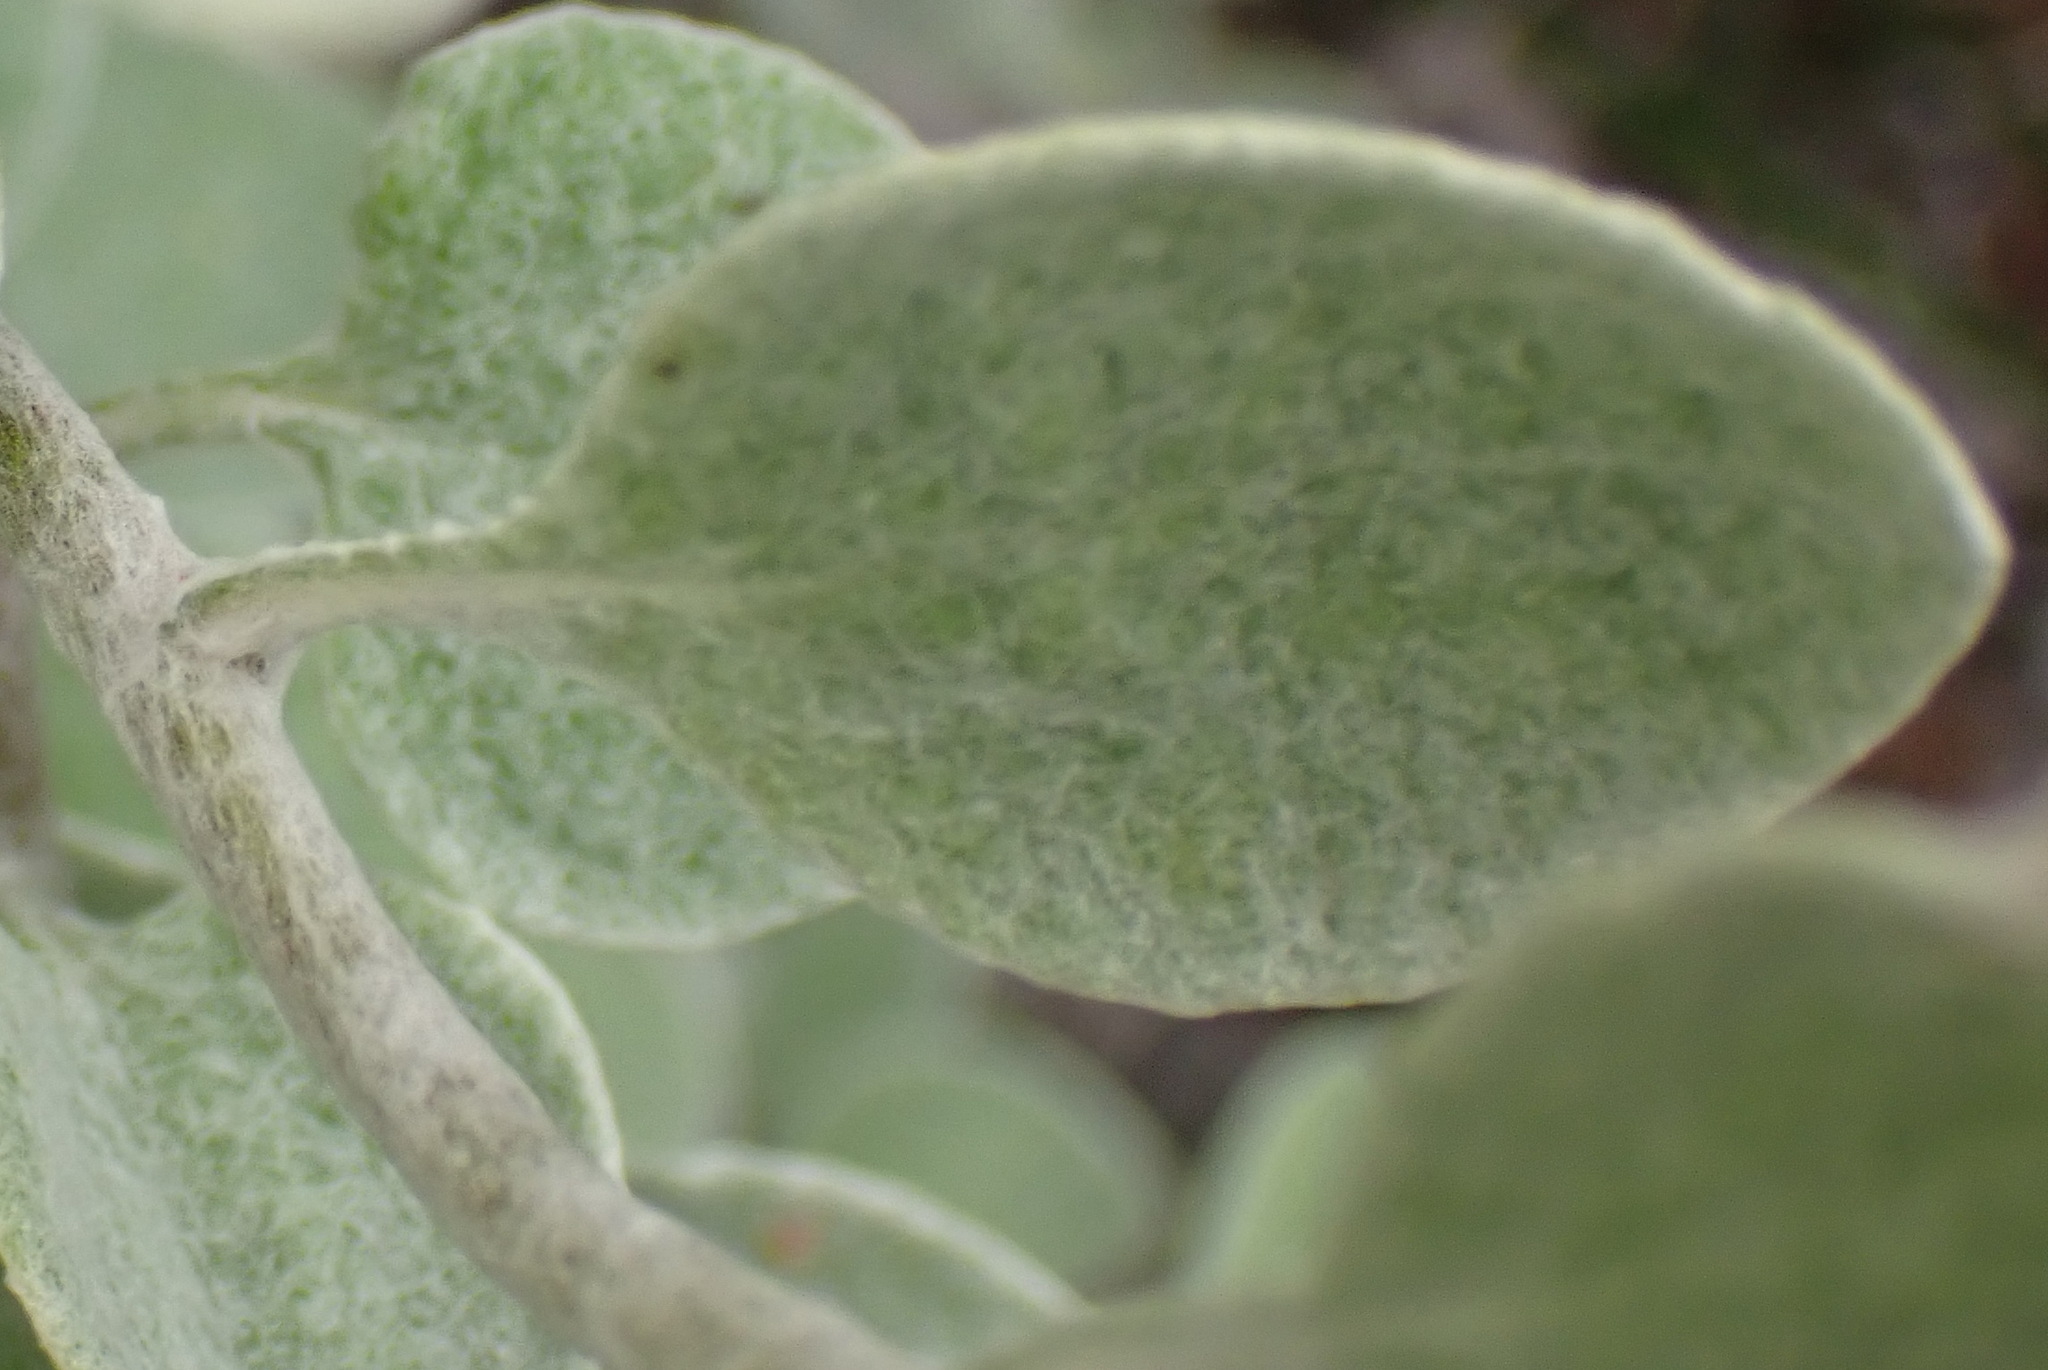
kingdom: Plantae
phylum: Tracheophyta
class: Magnoliopsida
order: Asterales
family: Asteraceae
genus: Helichrysum
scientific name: Helichrysum petiolare
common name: Licorice-plant
